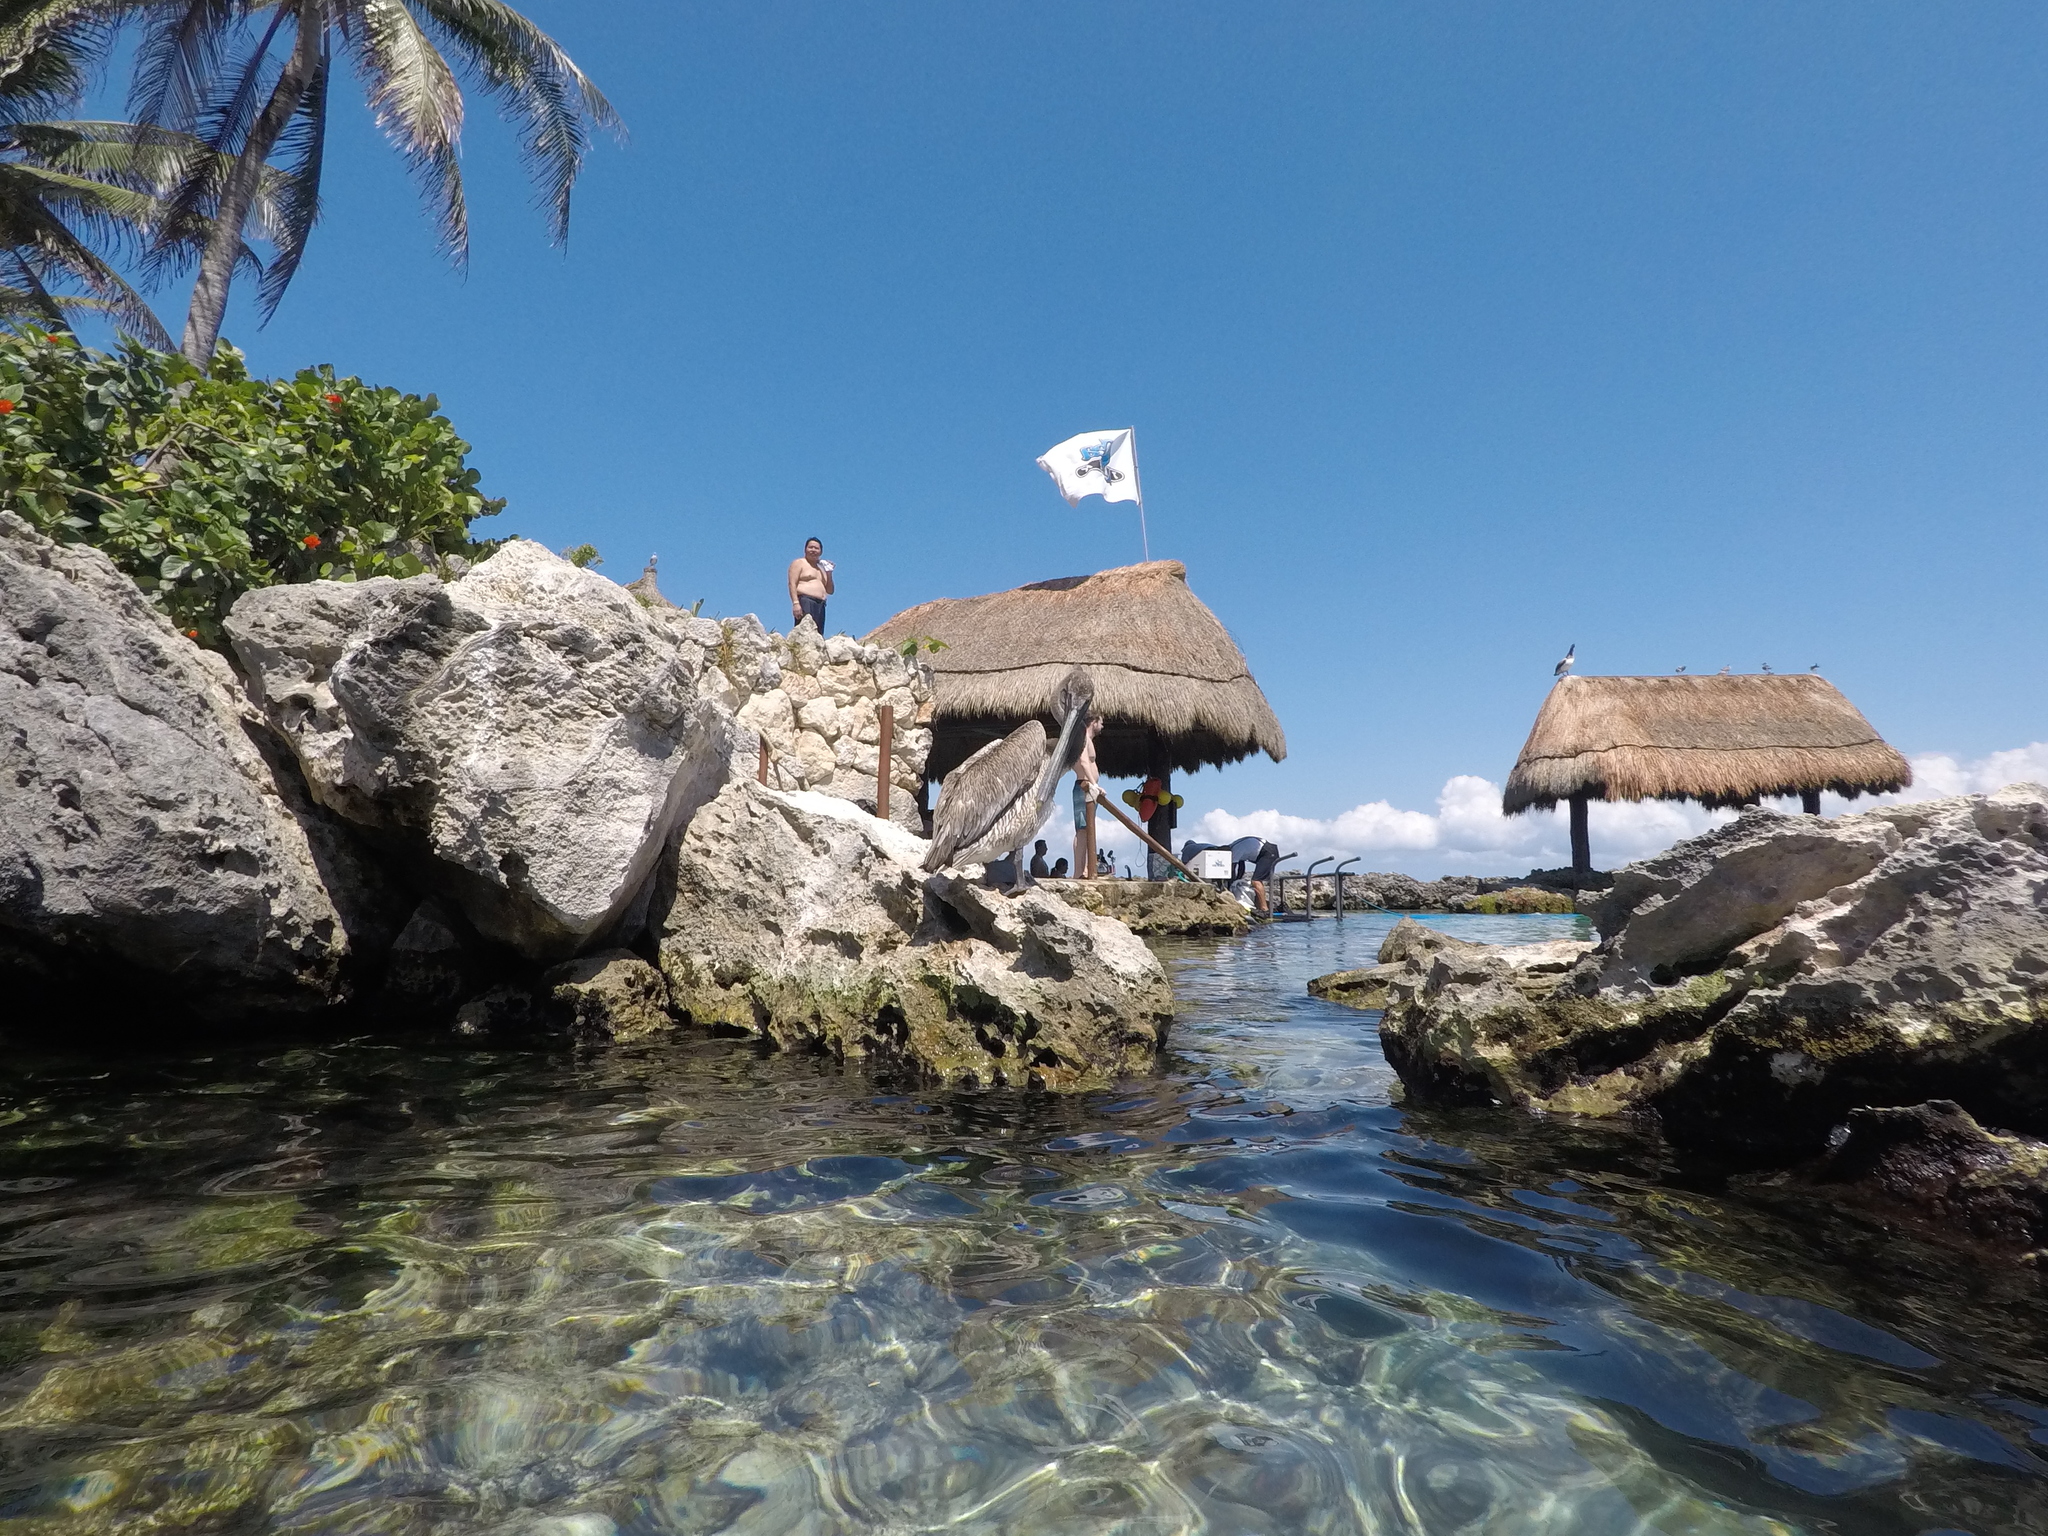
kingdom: Animalia
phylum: Chordata
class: Aves
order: Pelecaniformes
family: Pelecanidae
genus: Pelecanus
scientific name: Pelecanus occidentalis
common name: Brown pelican
